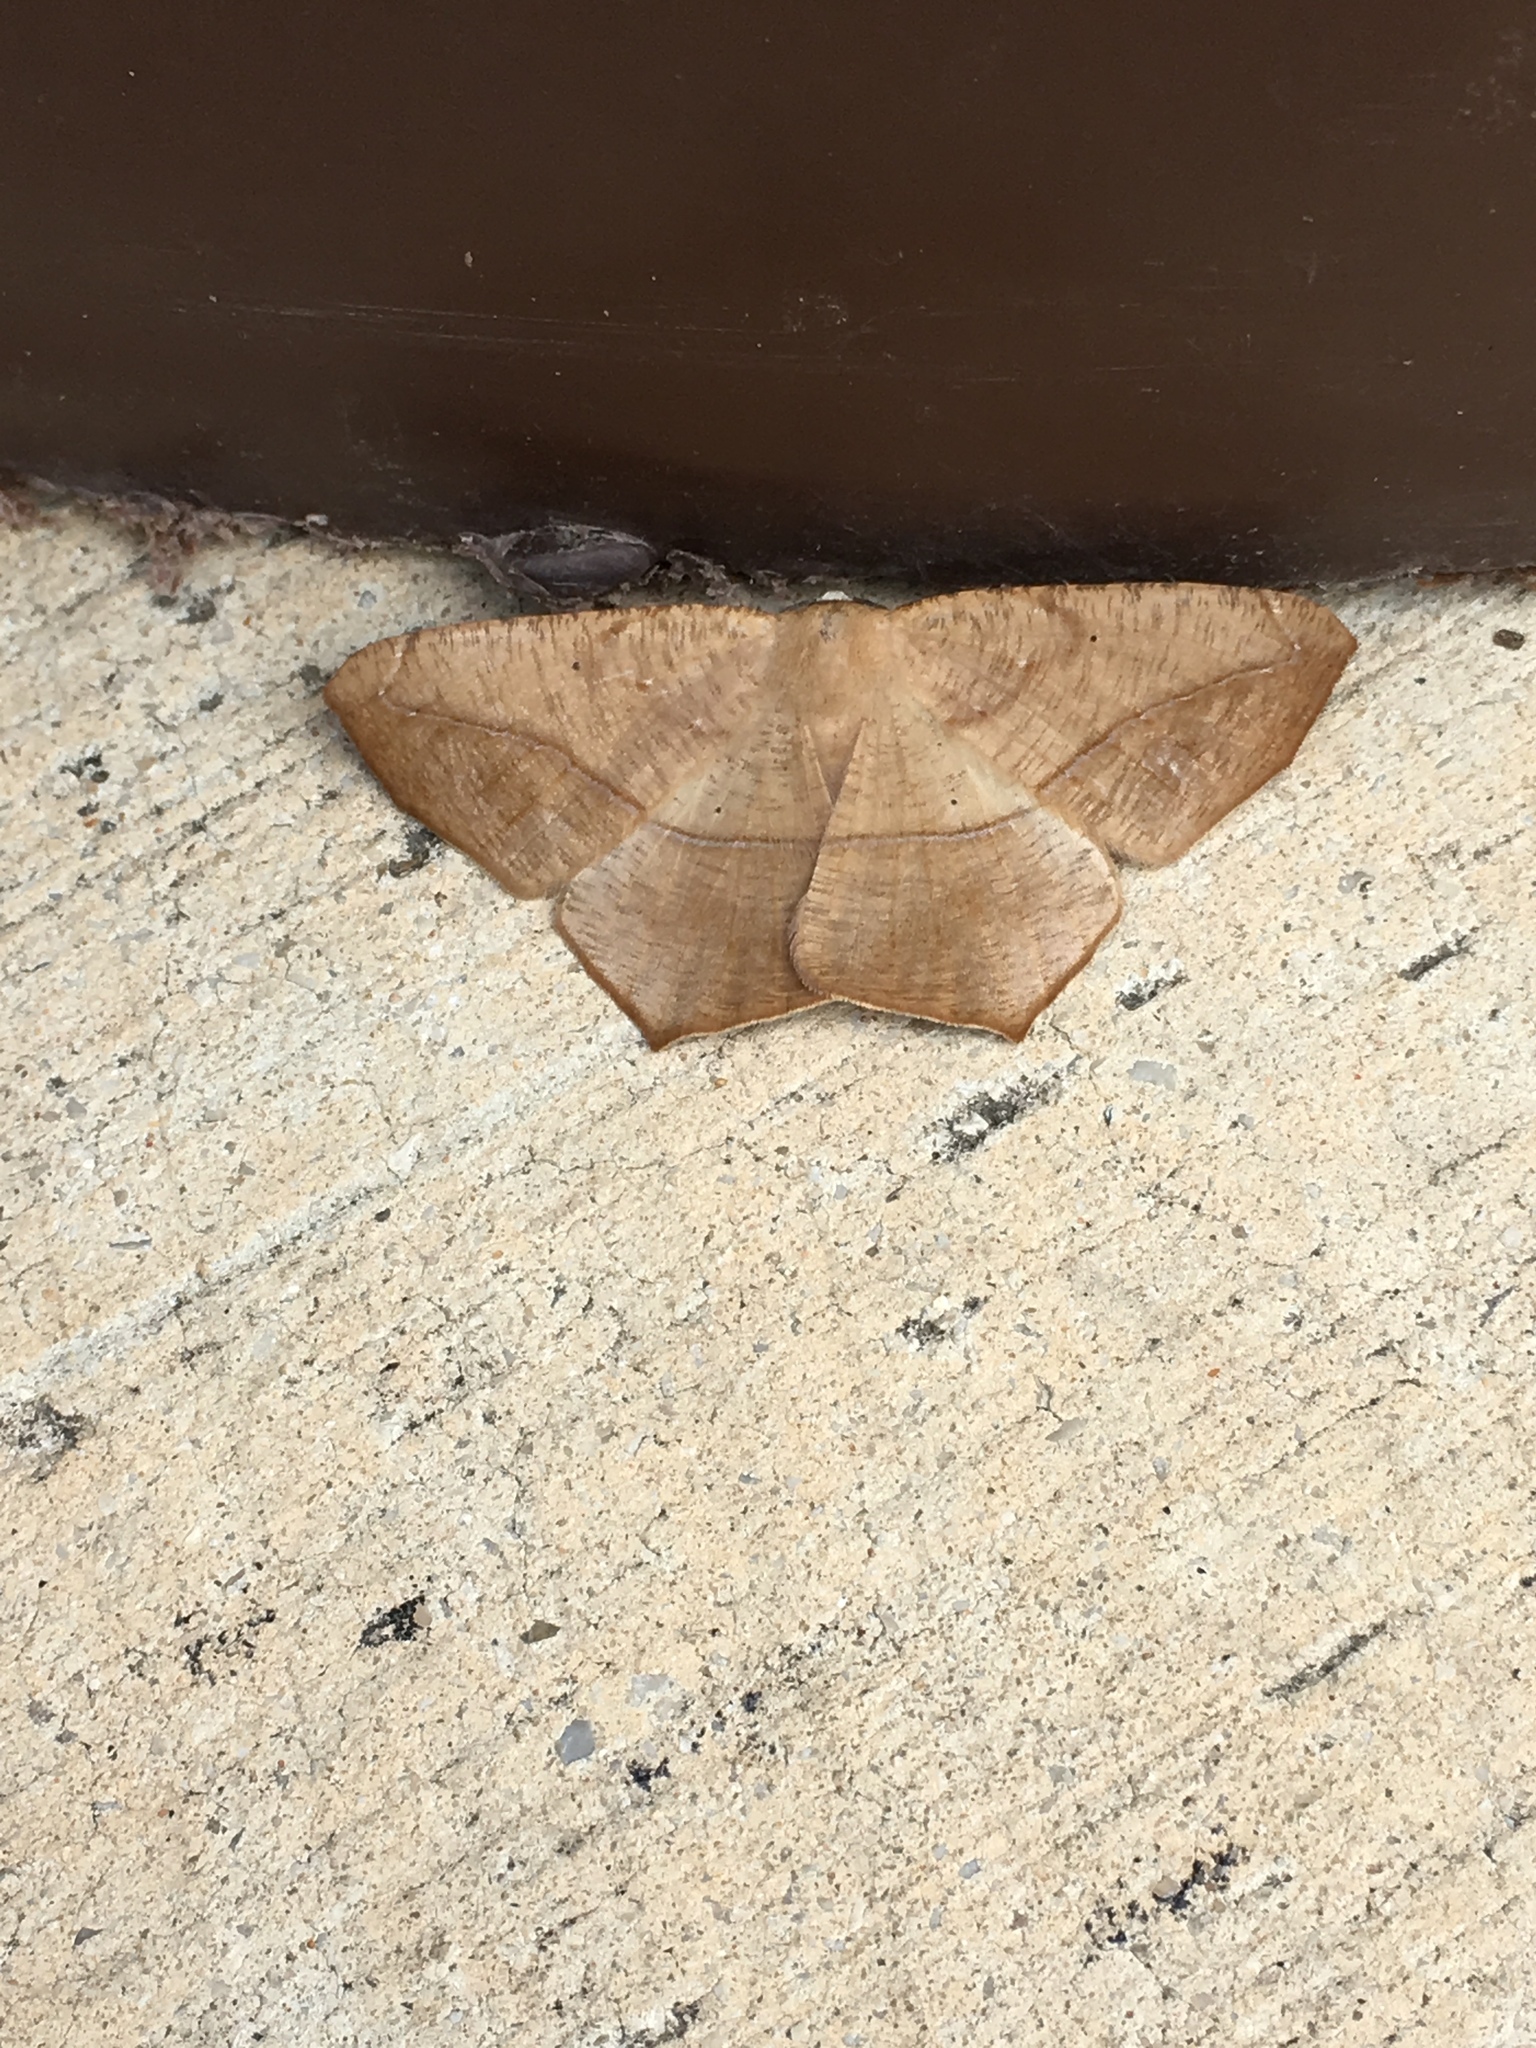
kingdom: Animalia
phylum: Arthropoda
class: Insecta
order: Lepidoptera
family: Geometridae
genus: Prochoerodes
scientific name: Prochoerodes lineola
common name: Large maple spanworm
